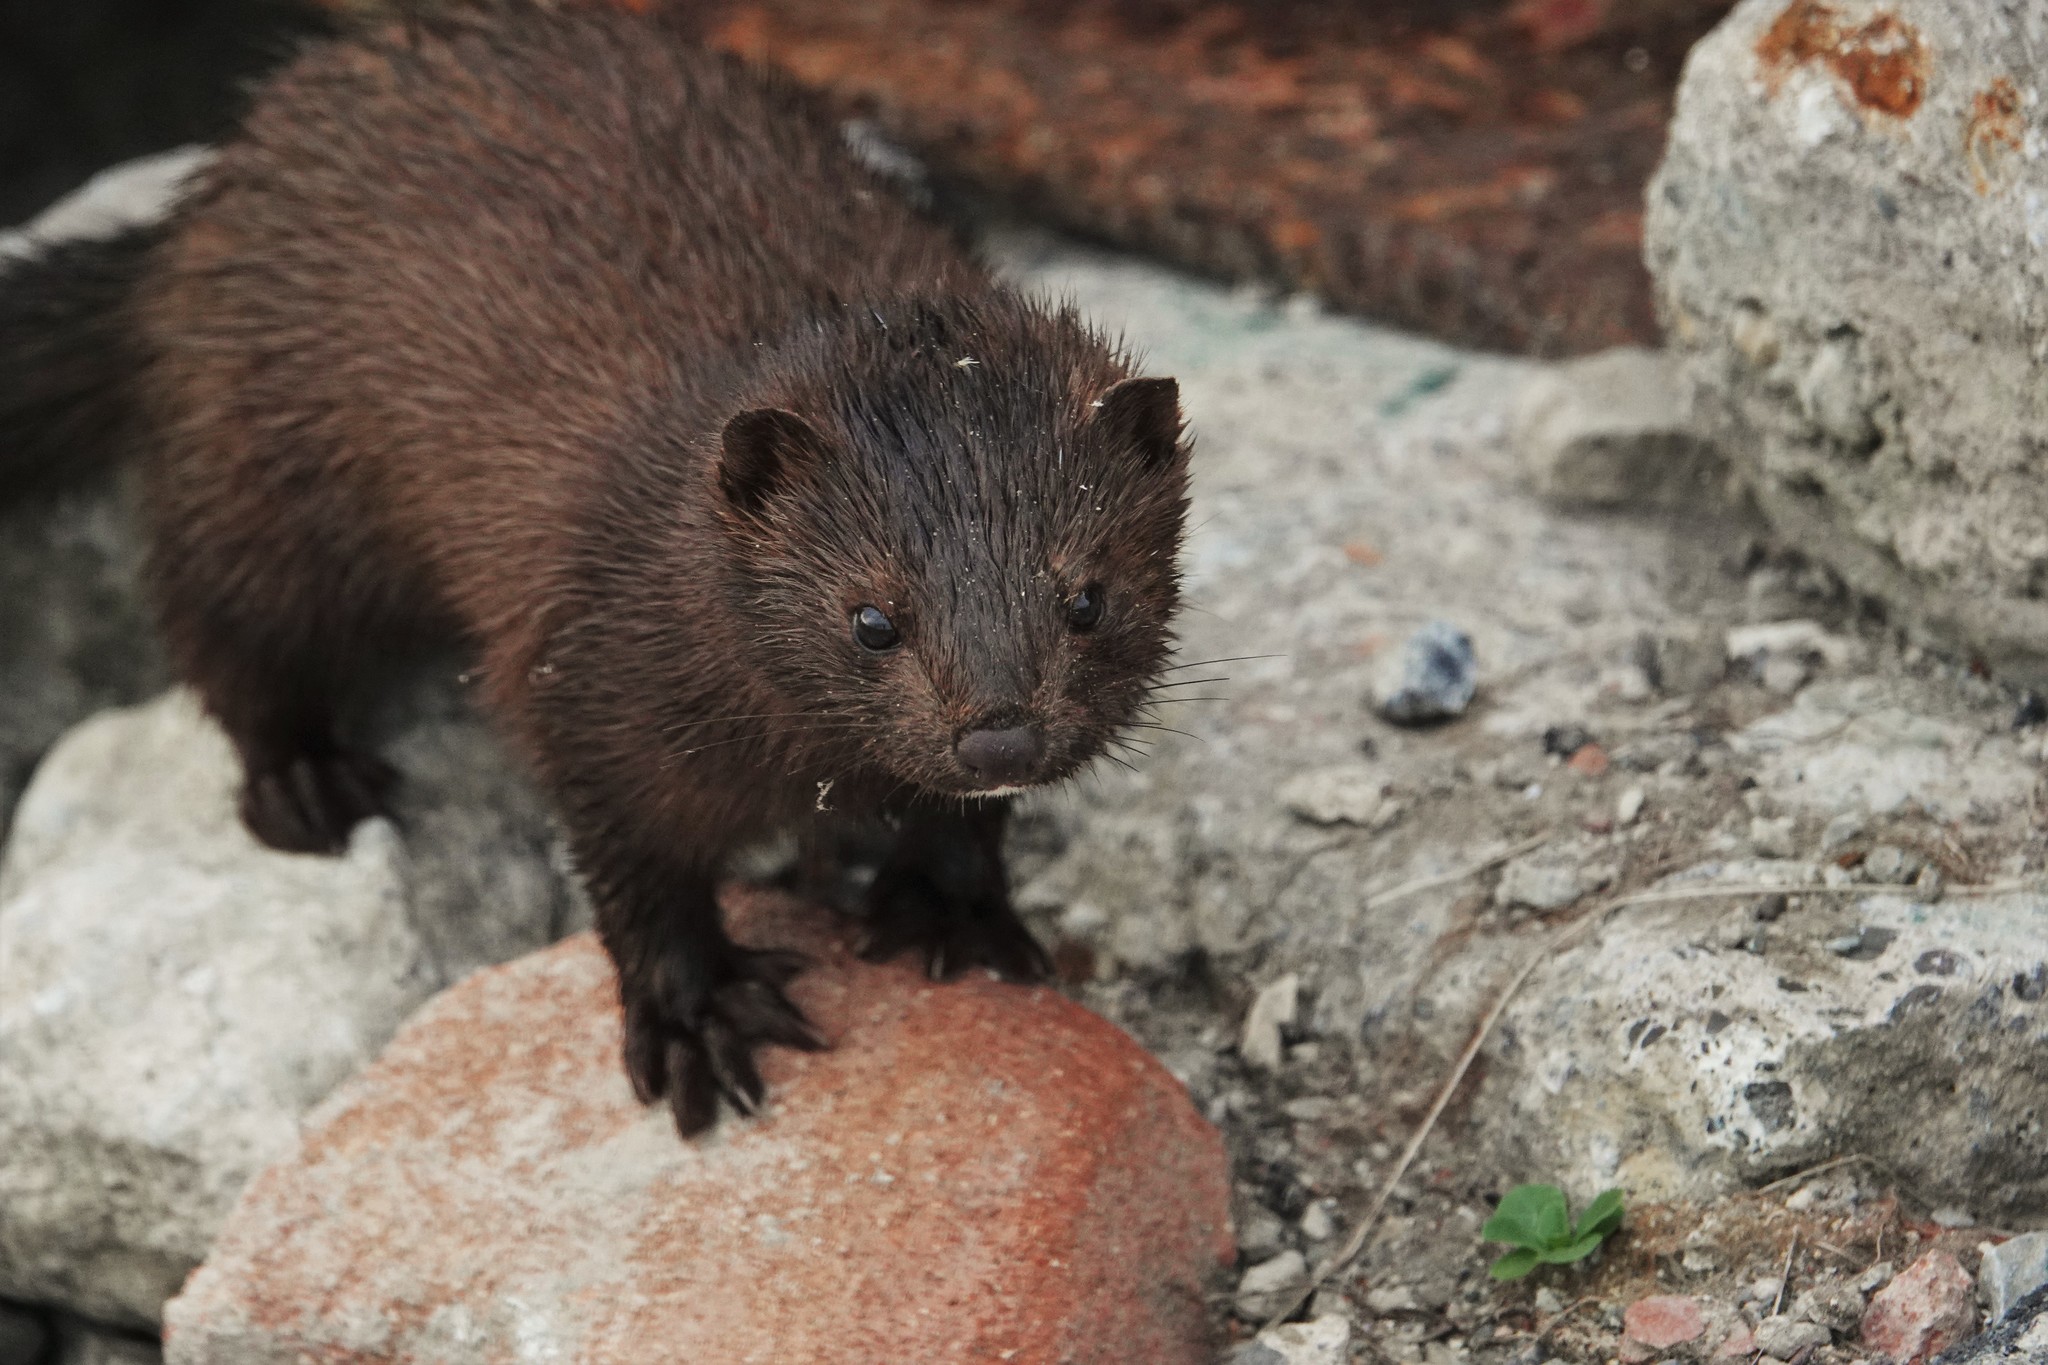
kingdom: Animalia
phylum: Chordata
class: Mammalia
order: Carnivora
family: Mustelidae
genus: Mustela
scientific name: Mustela
